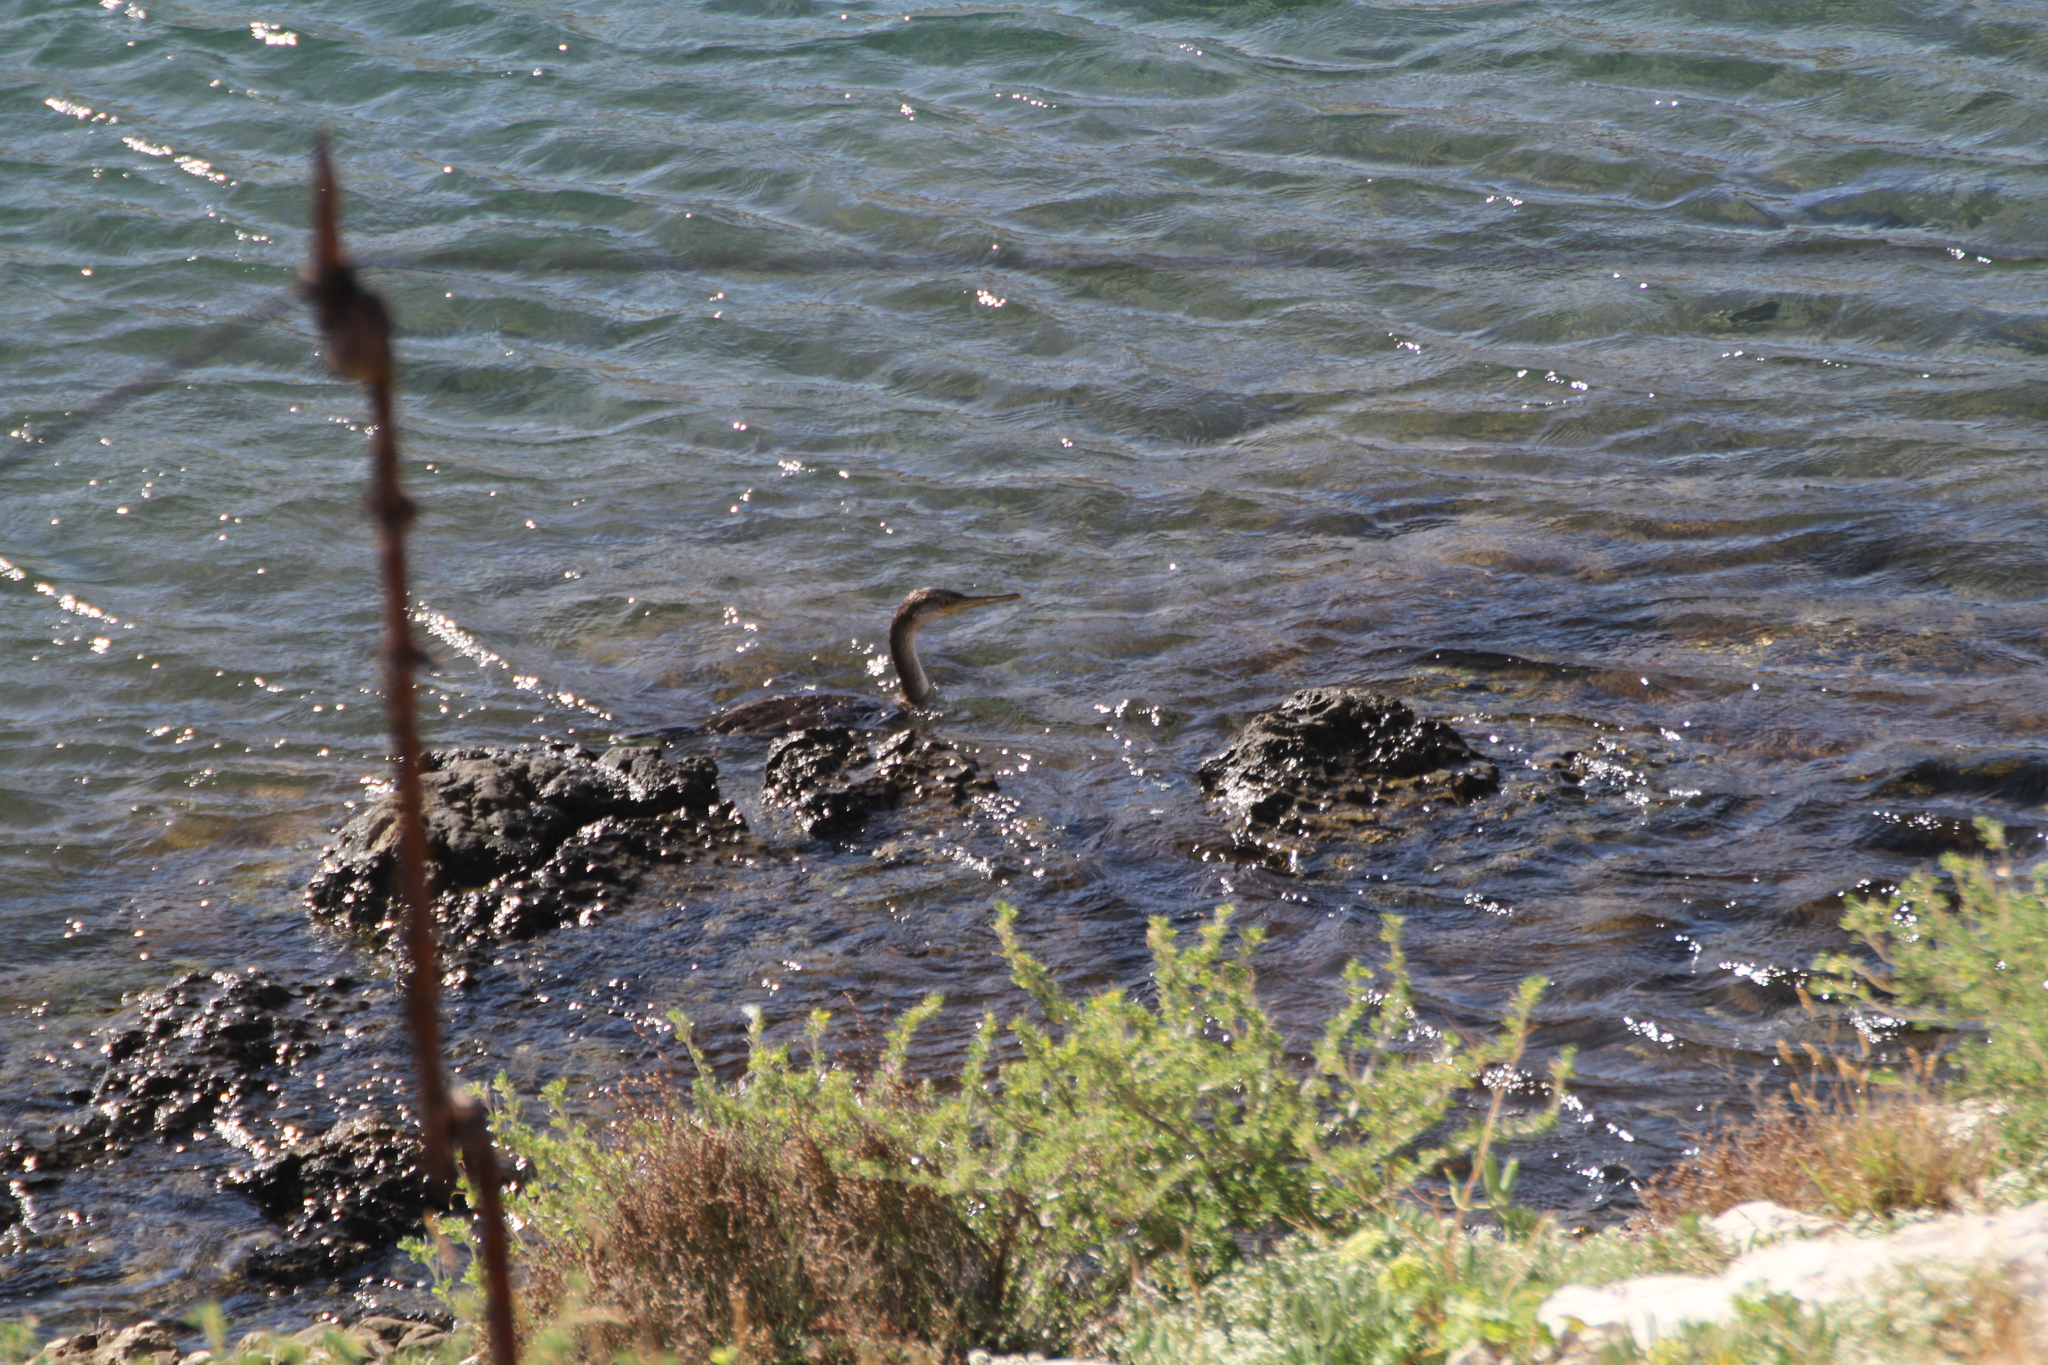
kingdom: Animalia
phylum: Chordata
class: Aves
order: Suliformes
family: Phalacrocoracidae
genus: Phalacrocorax
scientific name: Phalacrocorax aristotelis
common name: European shag
